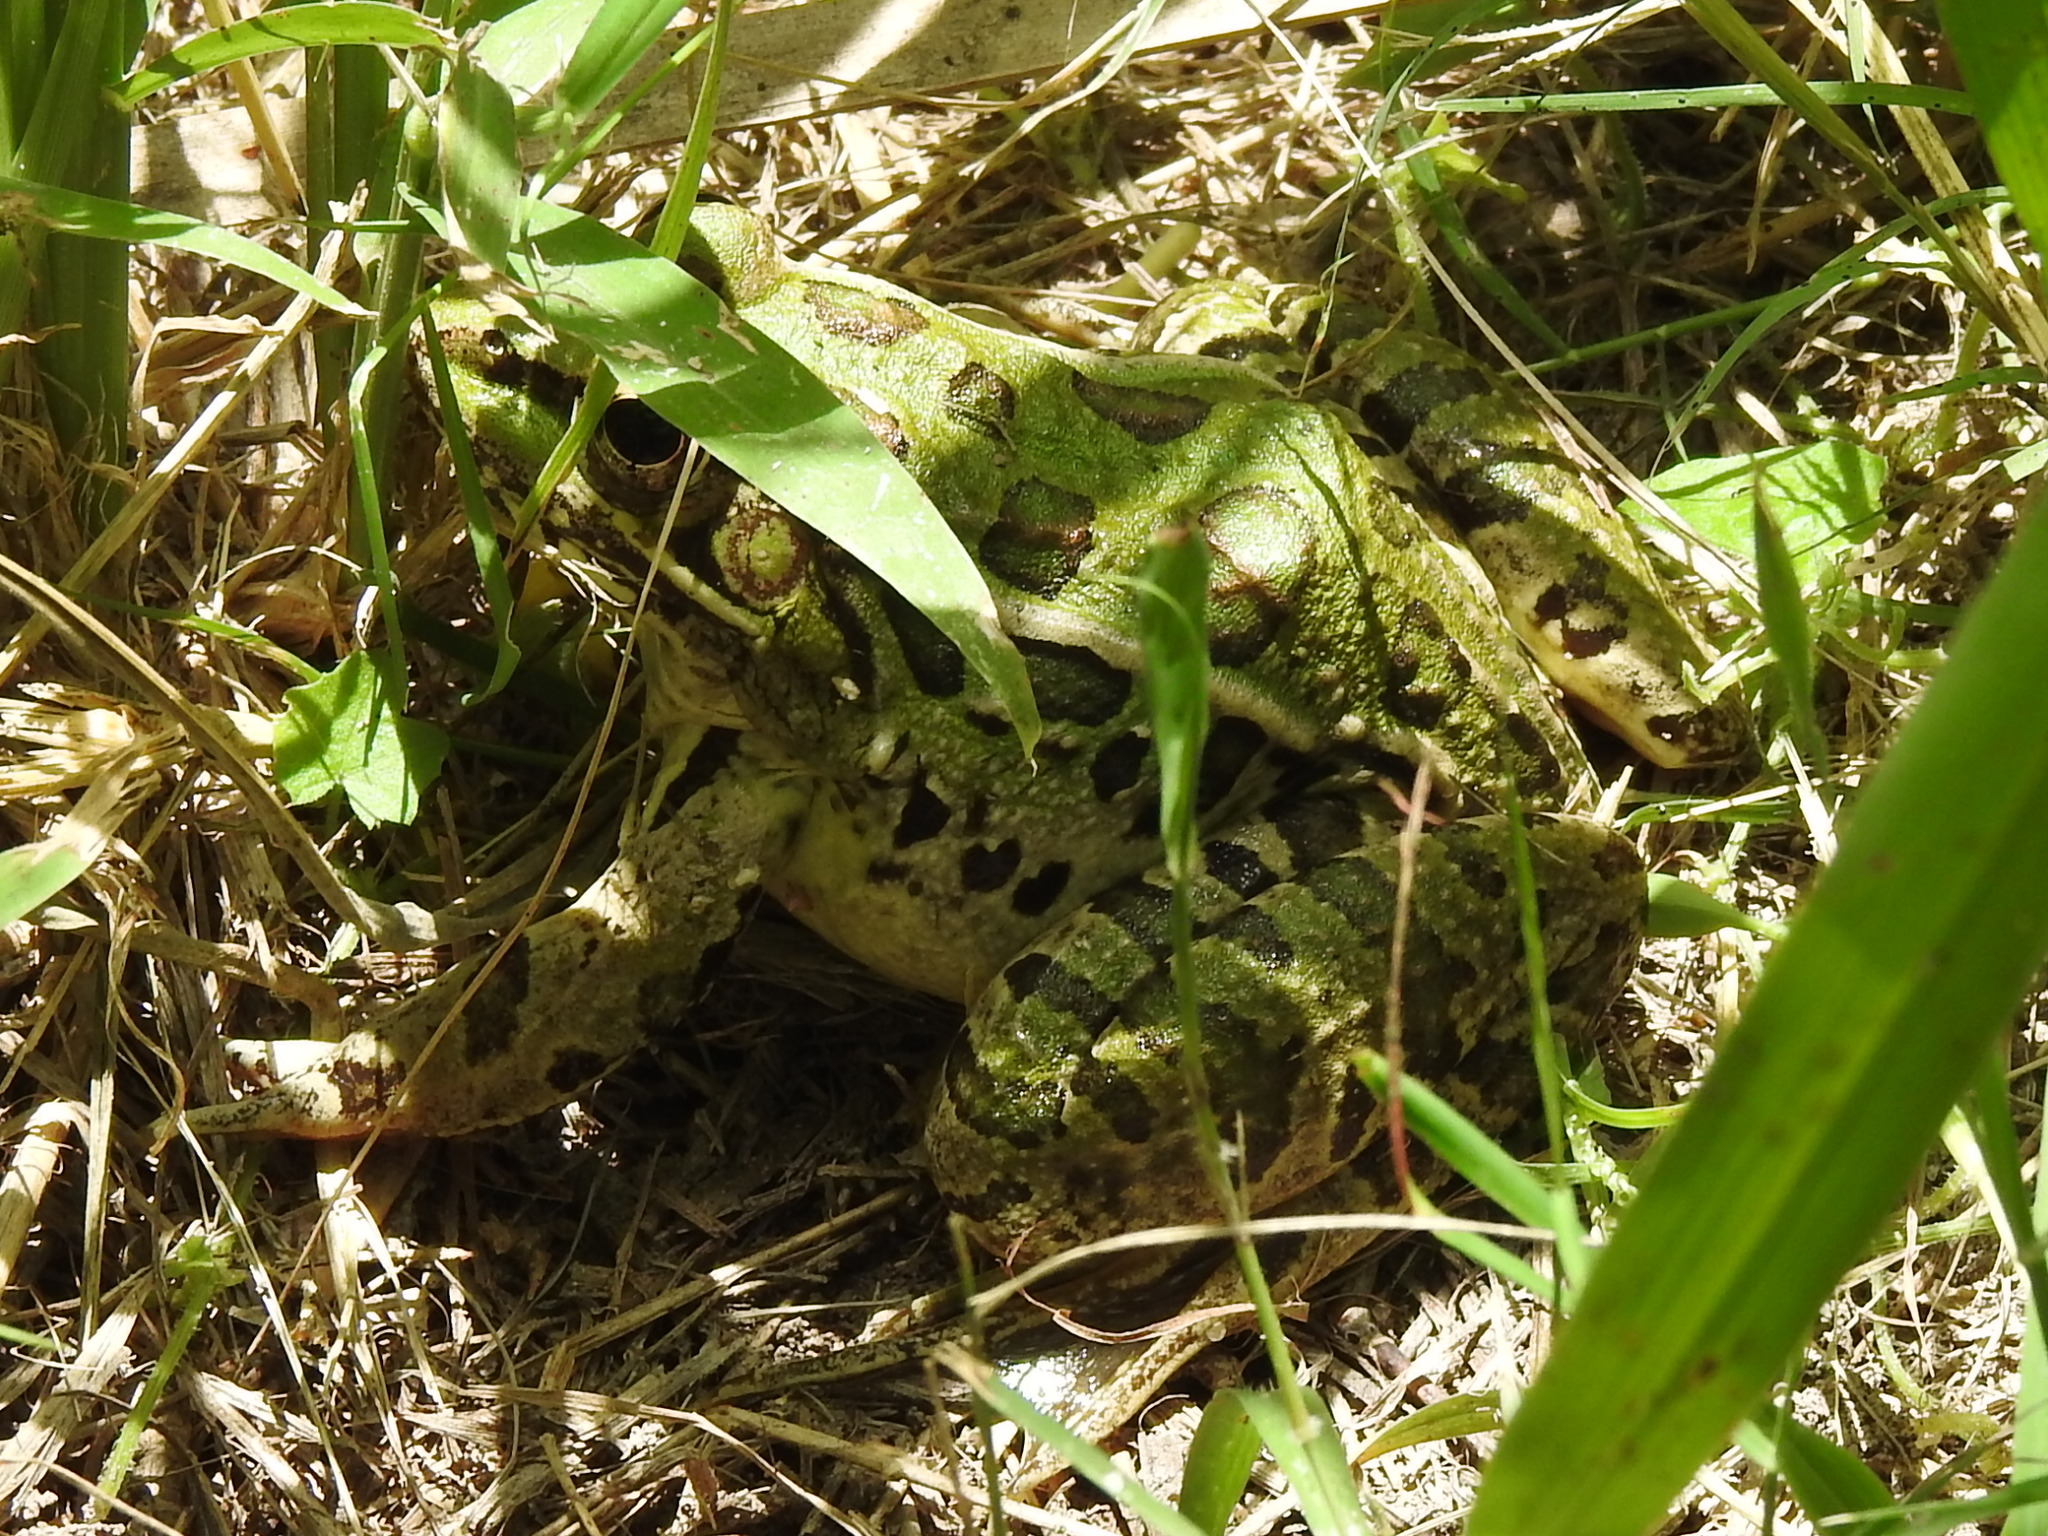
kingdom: Animalia
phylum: Chordata
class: Amphibia
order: Anura
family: Ranidae
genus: Lithobates
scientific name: Lithobates berlandieri
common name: Rio grande leopard frog
